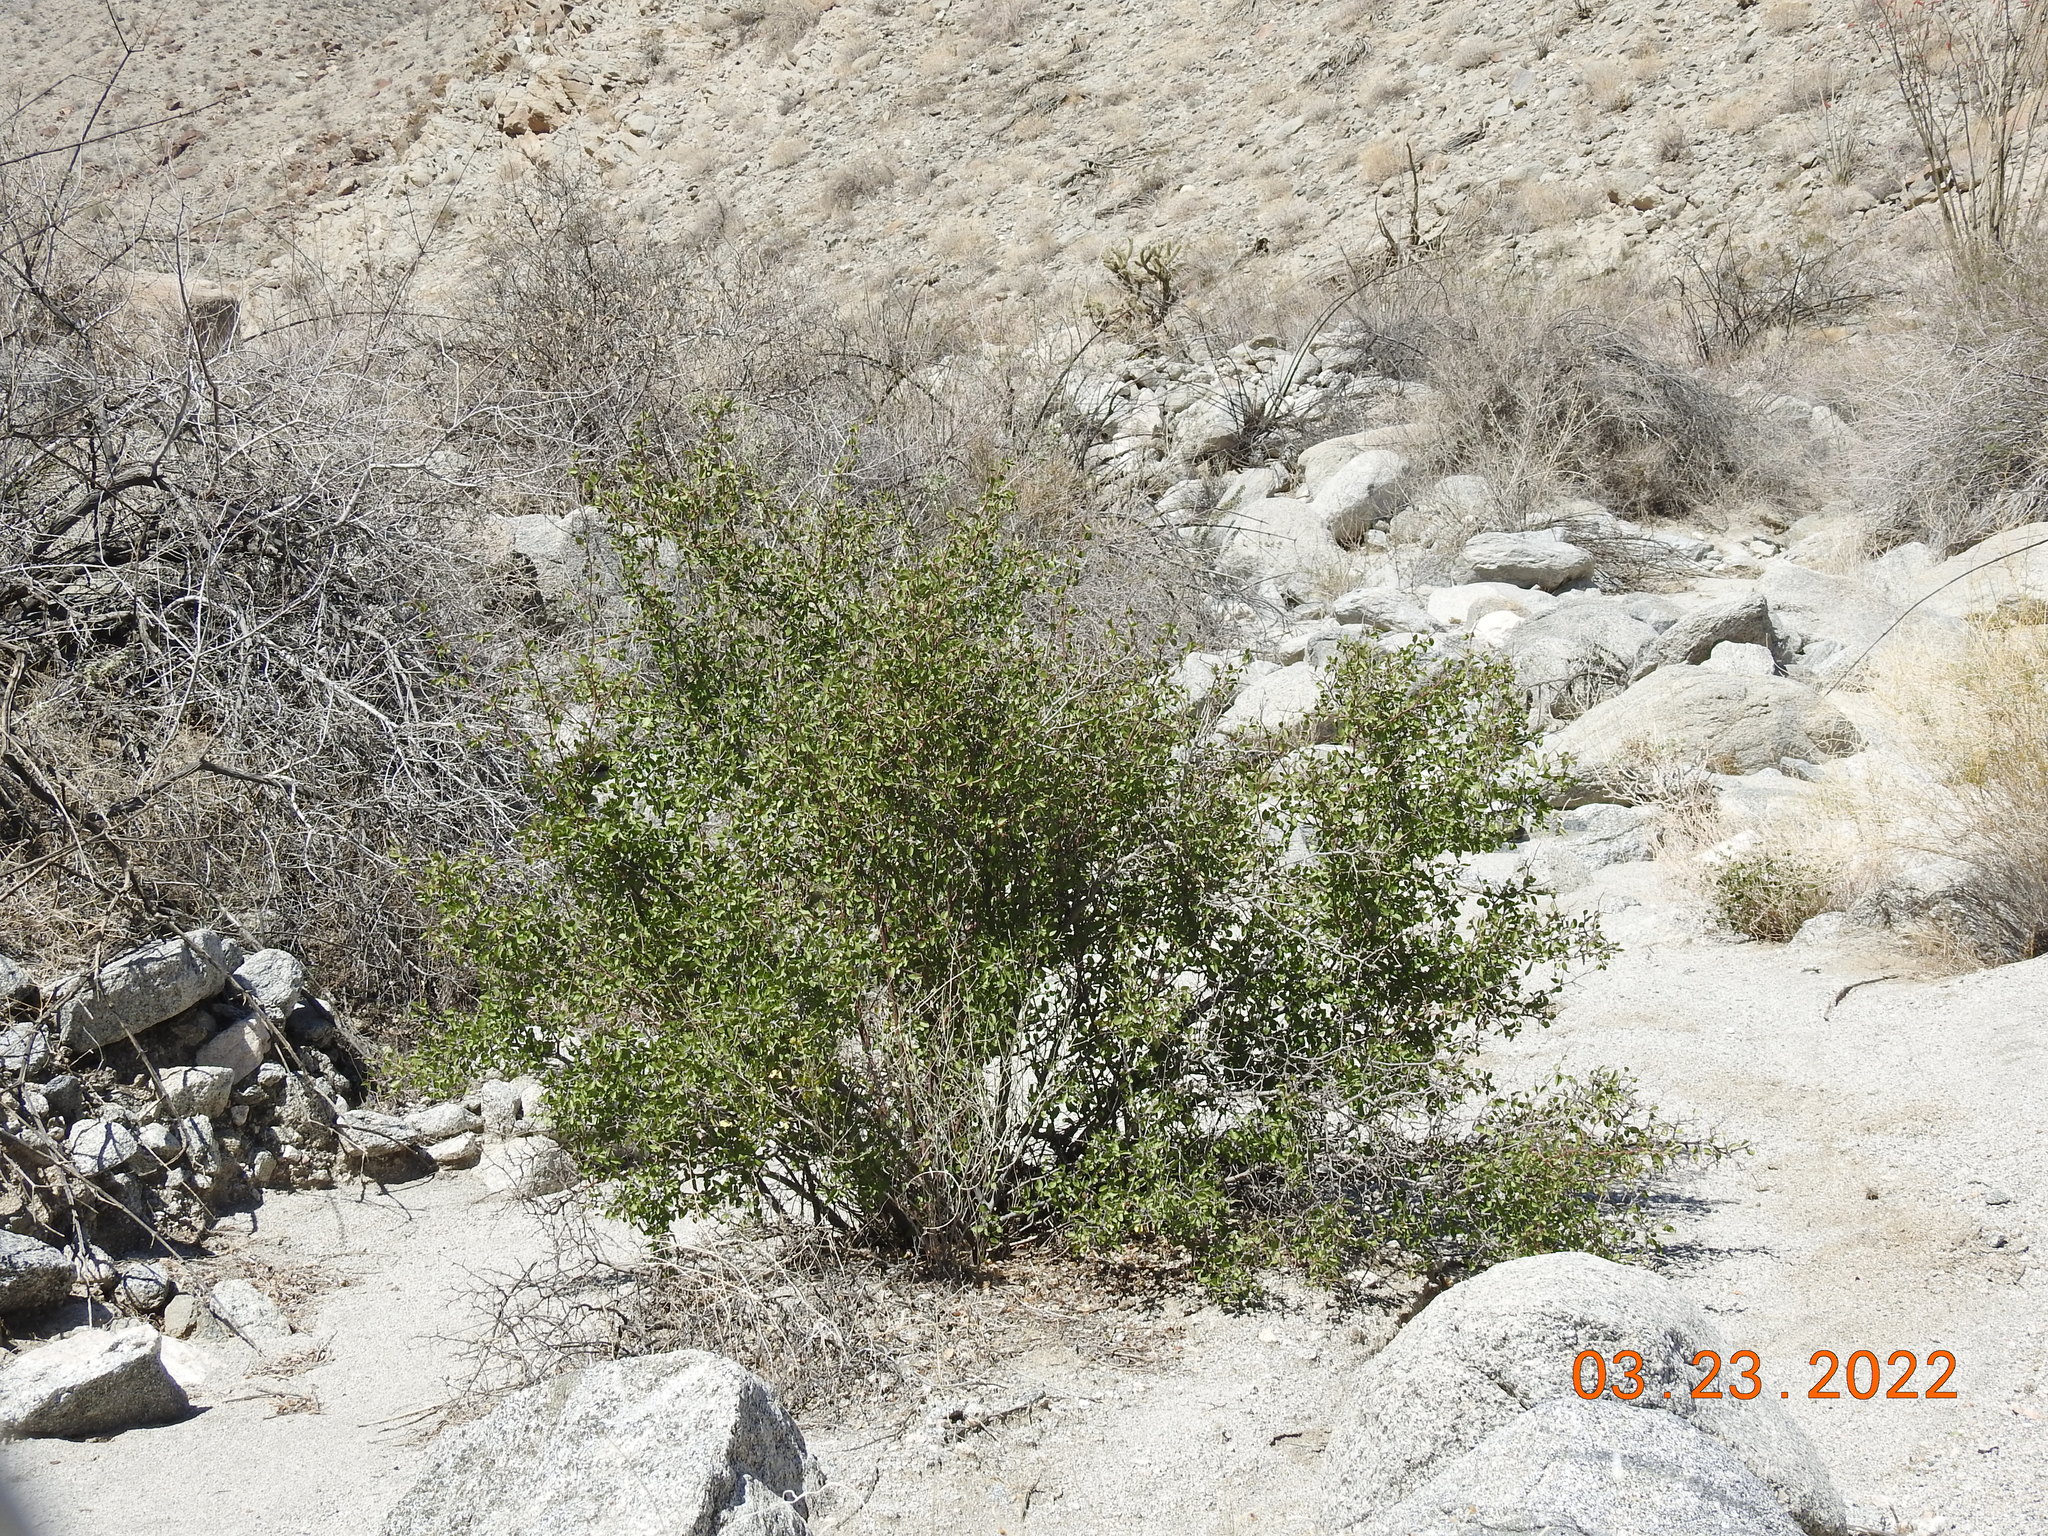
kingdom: Plantae
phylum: Tracheophyta
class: Magnoliopsida
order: Rosales
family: Rosaceae
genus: Prunus
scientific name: Prunus fremontii
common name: Desert apricot
